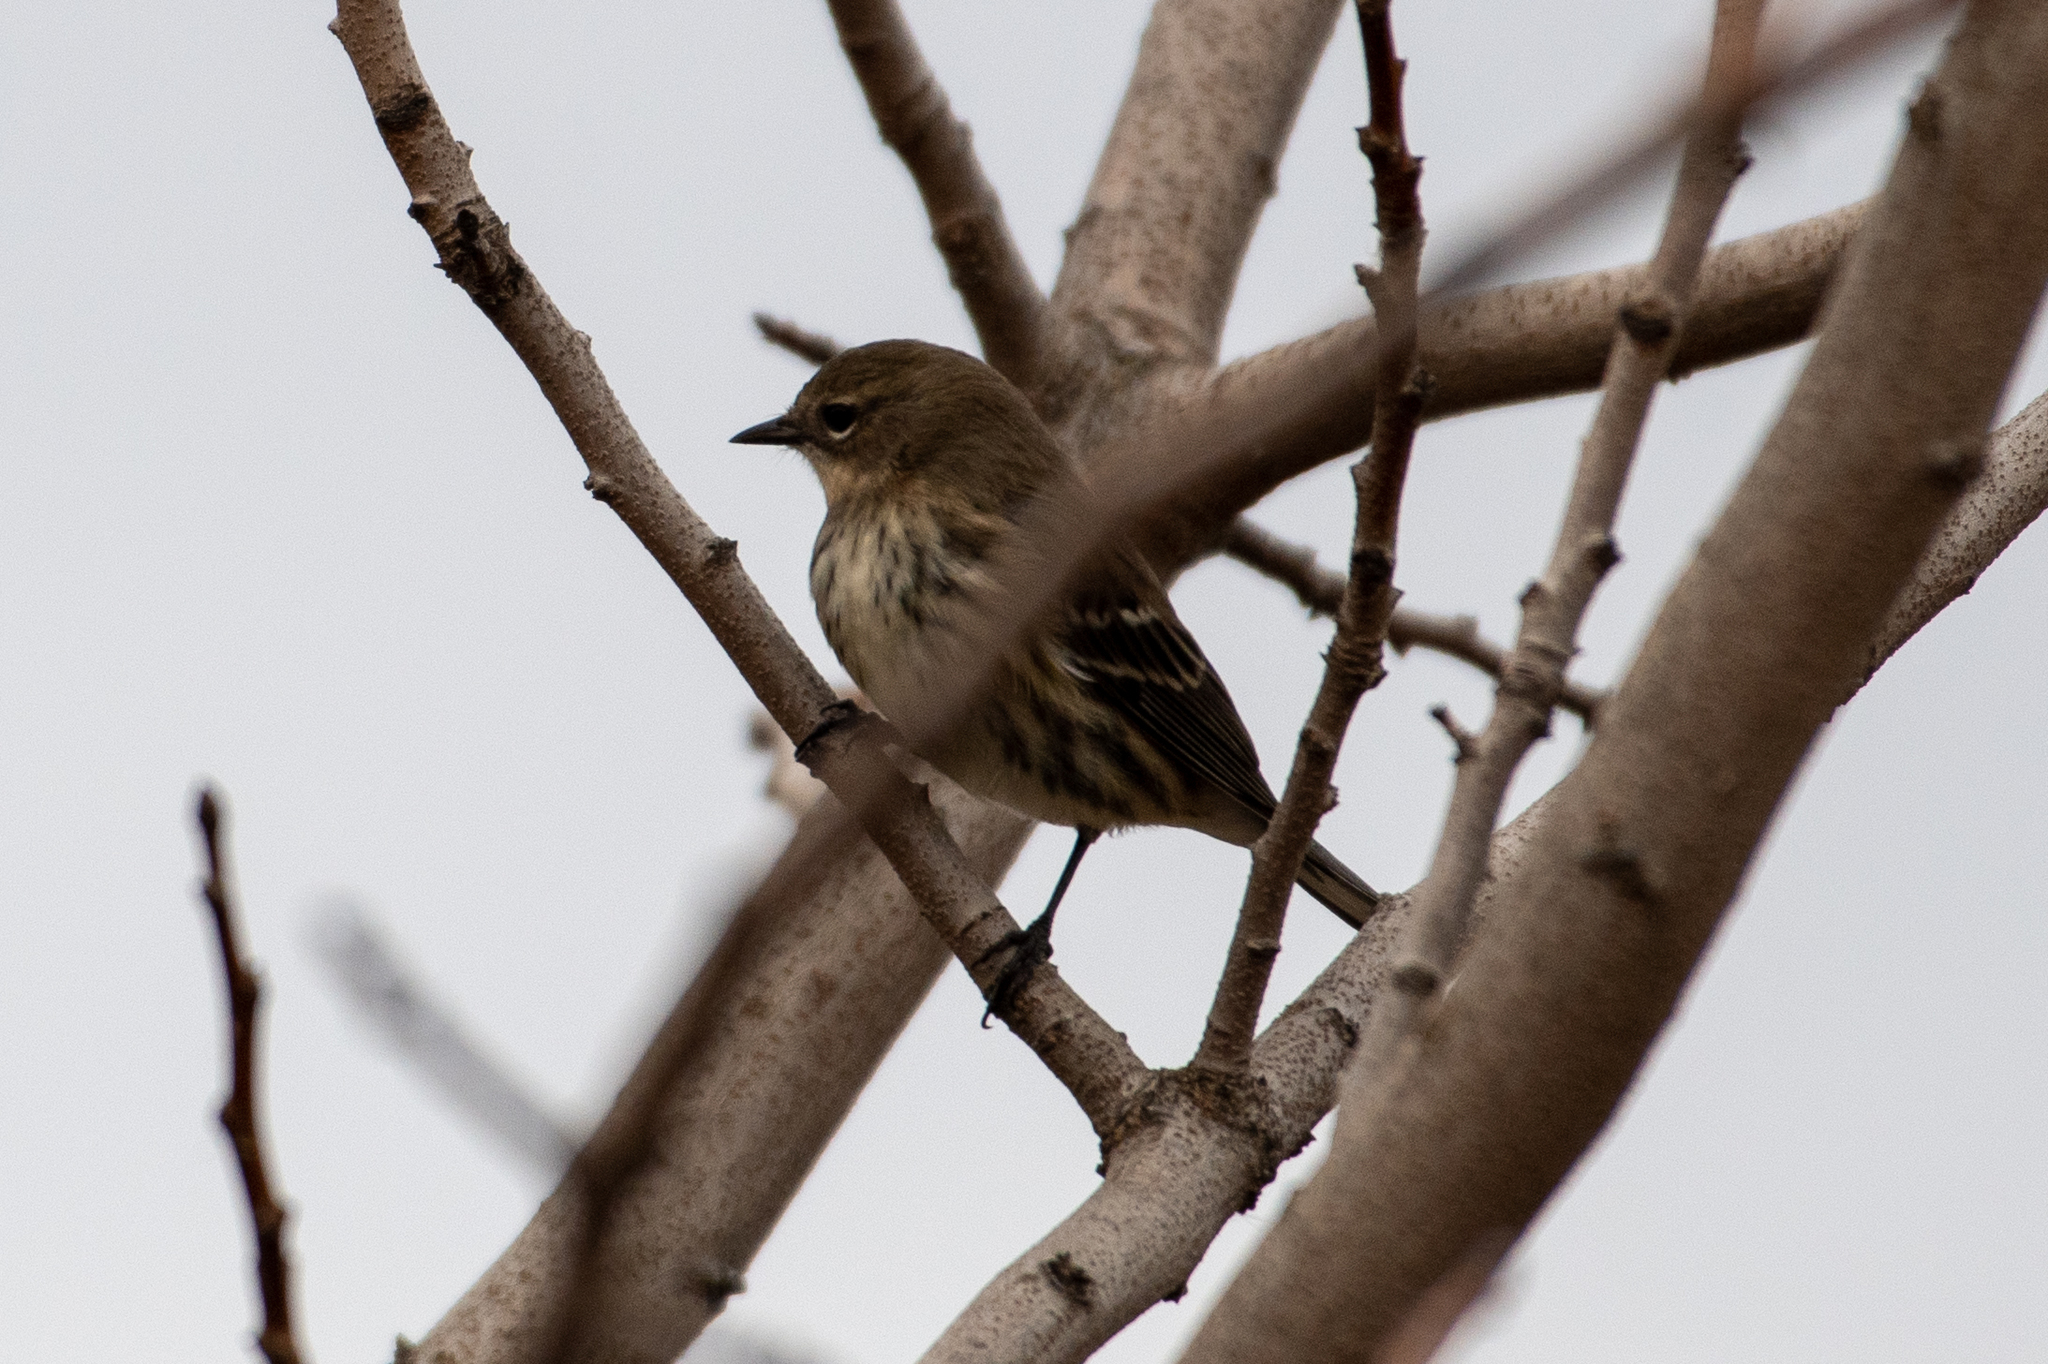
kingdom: Animalia
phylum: Chordata
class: Aves
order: Passeriformes
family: Parulidae
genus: Setophaga
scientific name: Setophaga coronata
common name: Myrtle warbler
